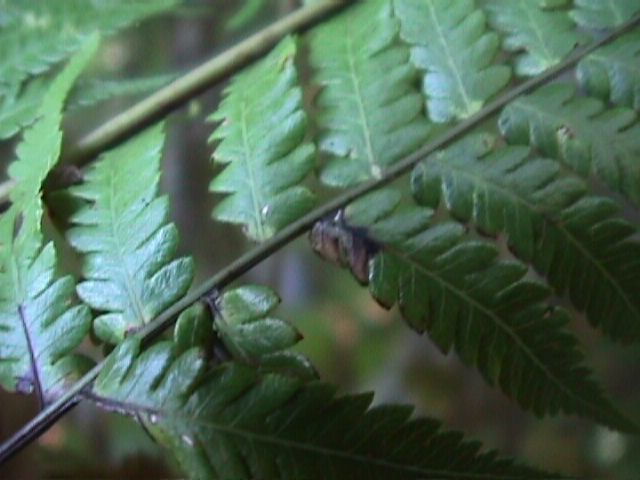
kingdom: Plantae
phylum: Tracheophyta
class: Polypodiopsida
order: Polypodiales
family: Thelypteridaceae
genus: Pakau
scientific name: Pakau pennigera
